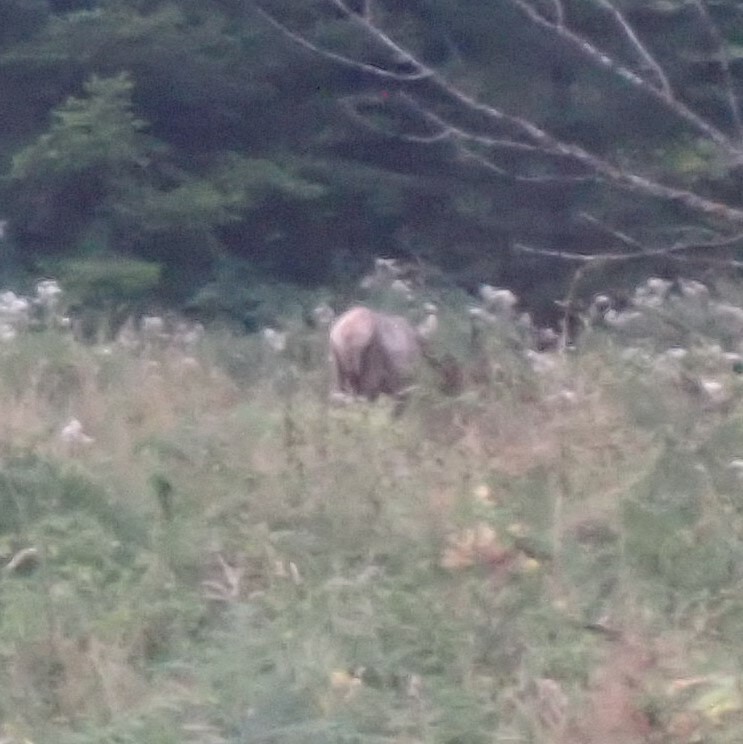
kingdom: Animalia
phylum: Chordata
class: Mammalia
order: Artiodactyla
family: Cervidae
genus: Cervus
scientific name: Cervus elaphus
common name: Red deer
